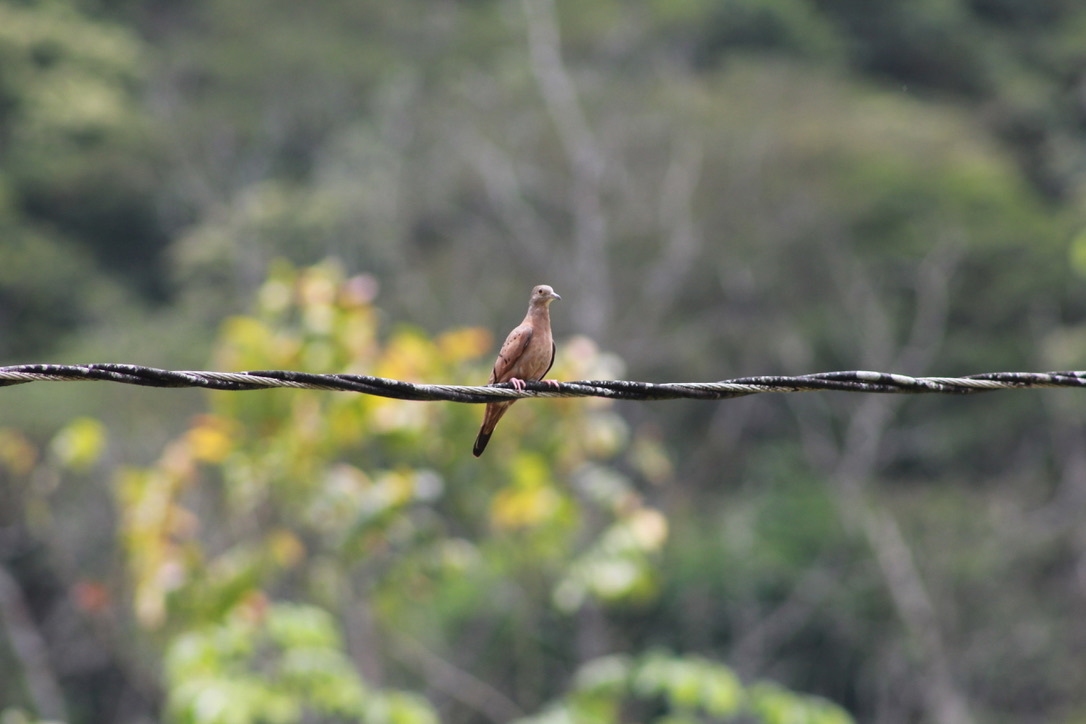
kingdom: Animalia
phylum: Chordata
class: Aves
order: Columbiformes
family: Columbidae
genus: Columbina
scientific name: Columbina talpacoti
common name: Ruddy ground dove
